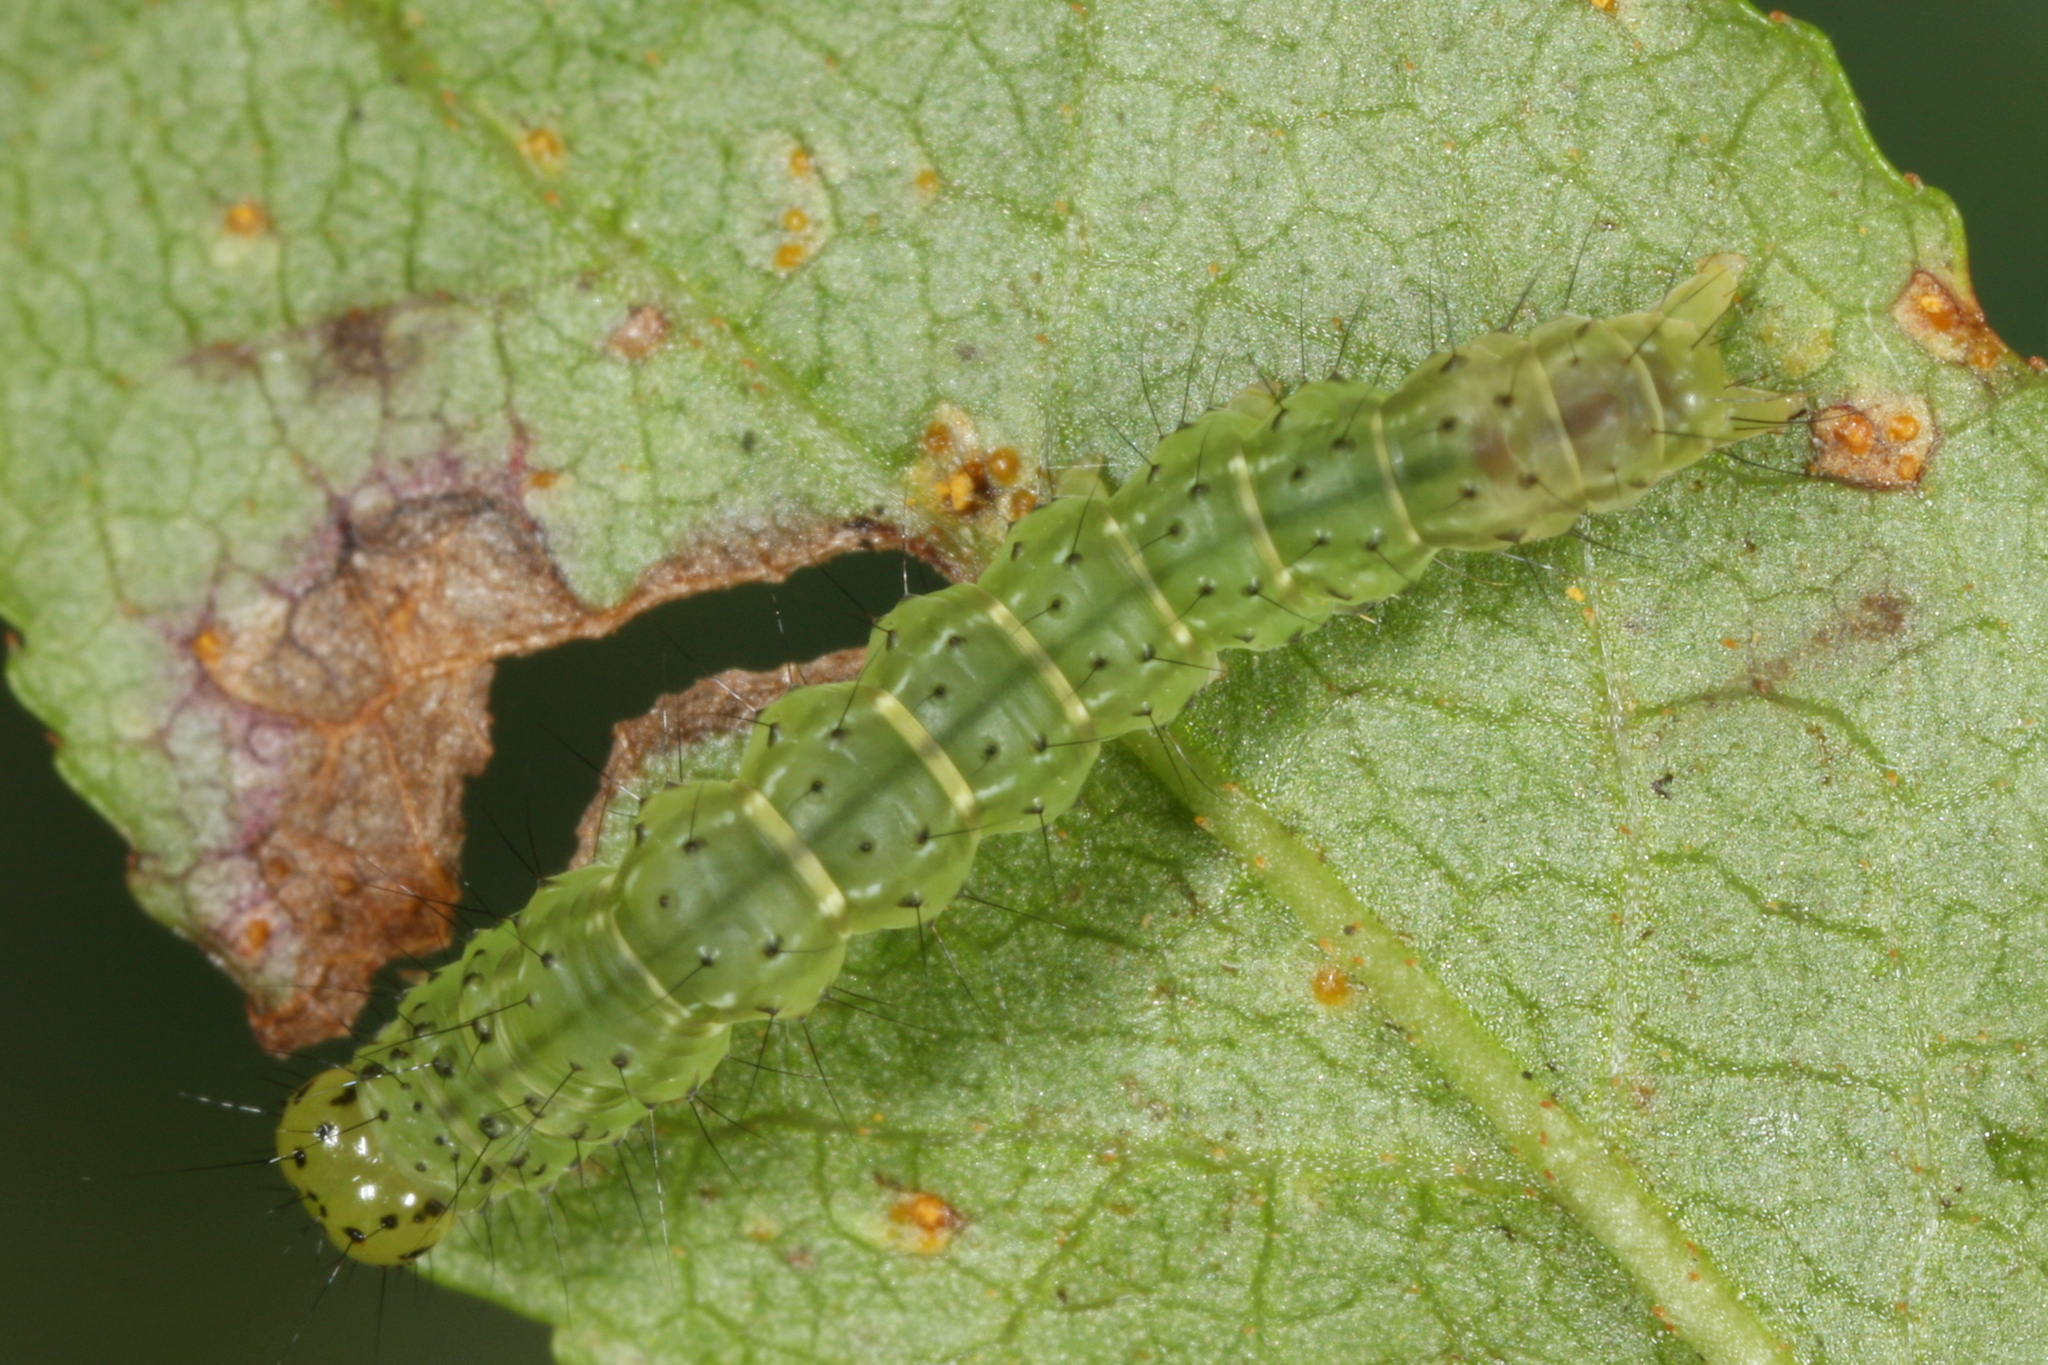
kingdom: Animalia
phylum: Arthropoda
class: Insecta
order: Lepidoptera
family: Erebidae
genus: Hypena
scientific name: Hypena crassalis
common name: Beautiful snout
